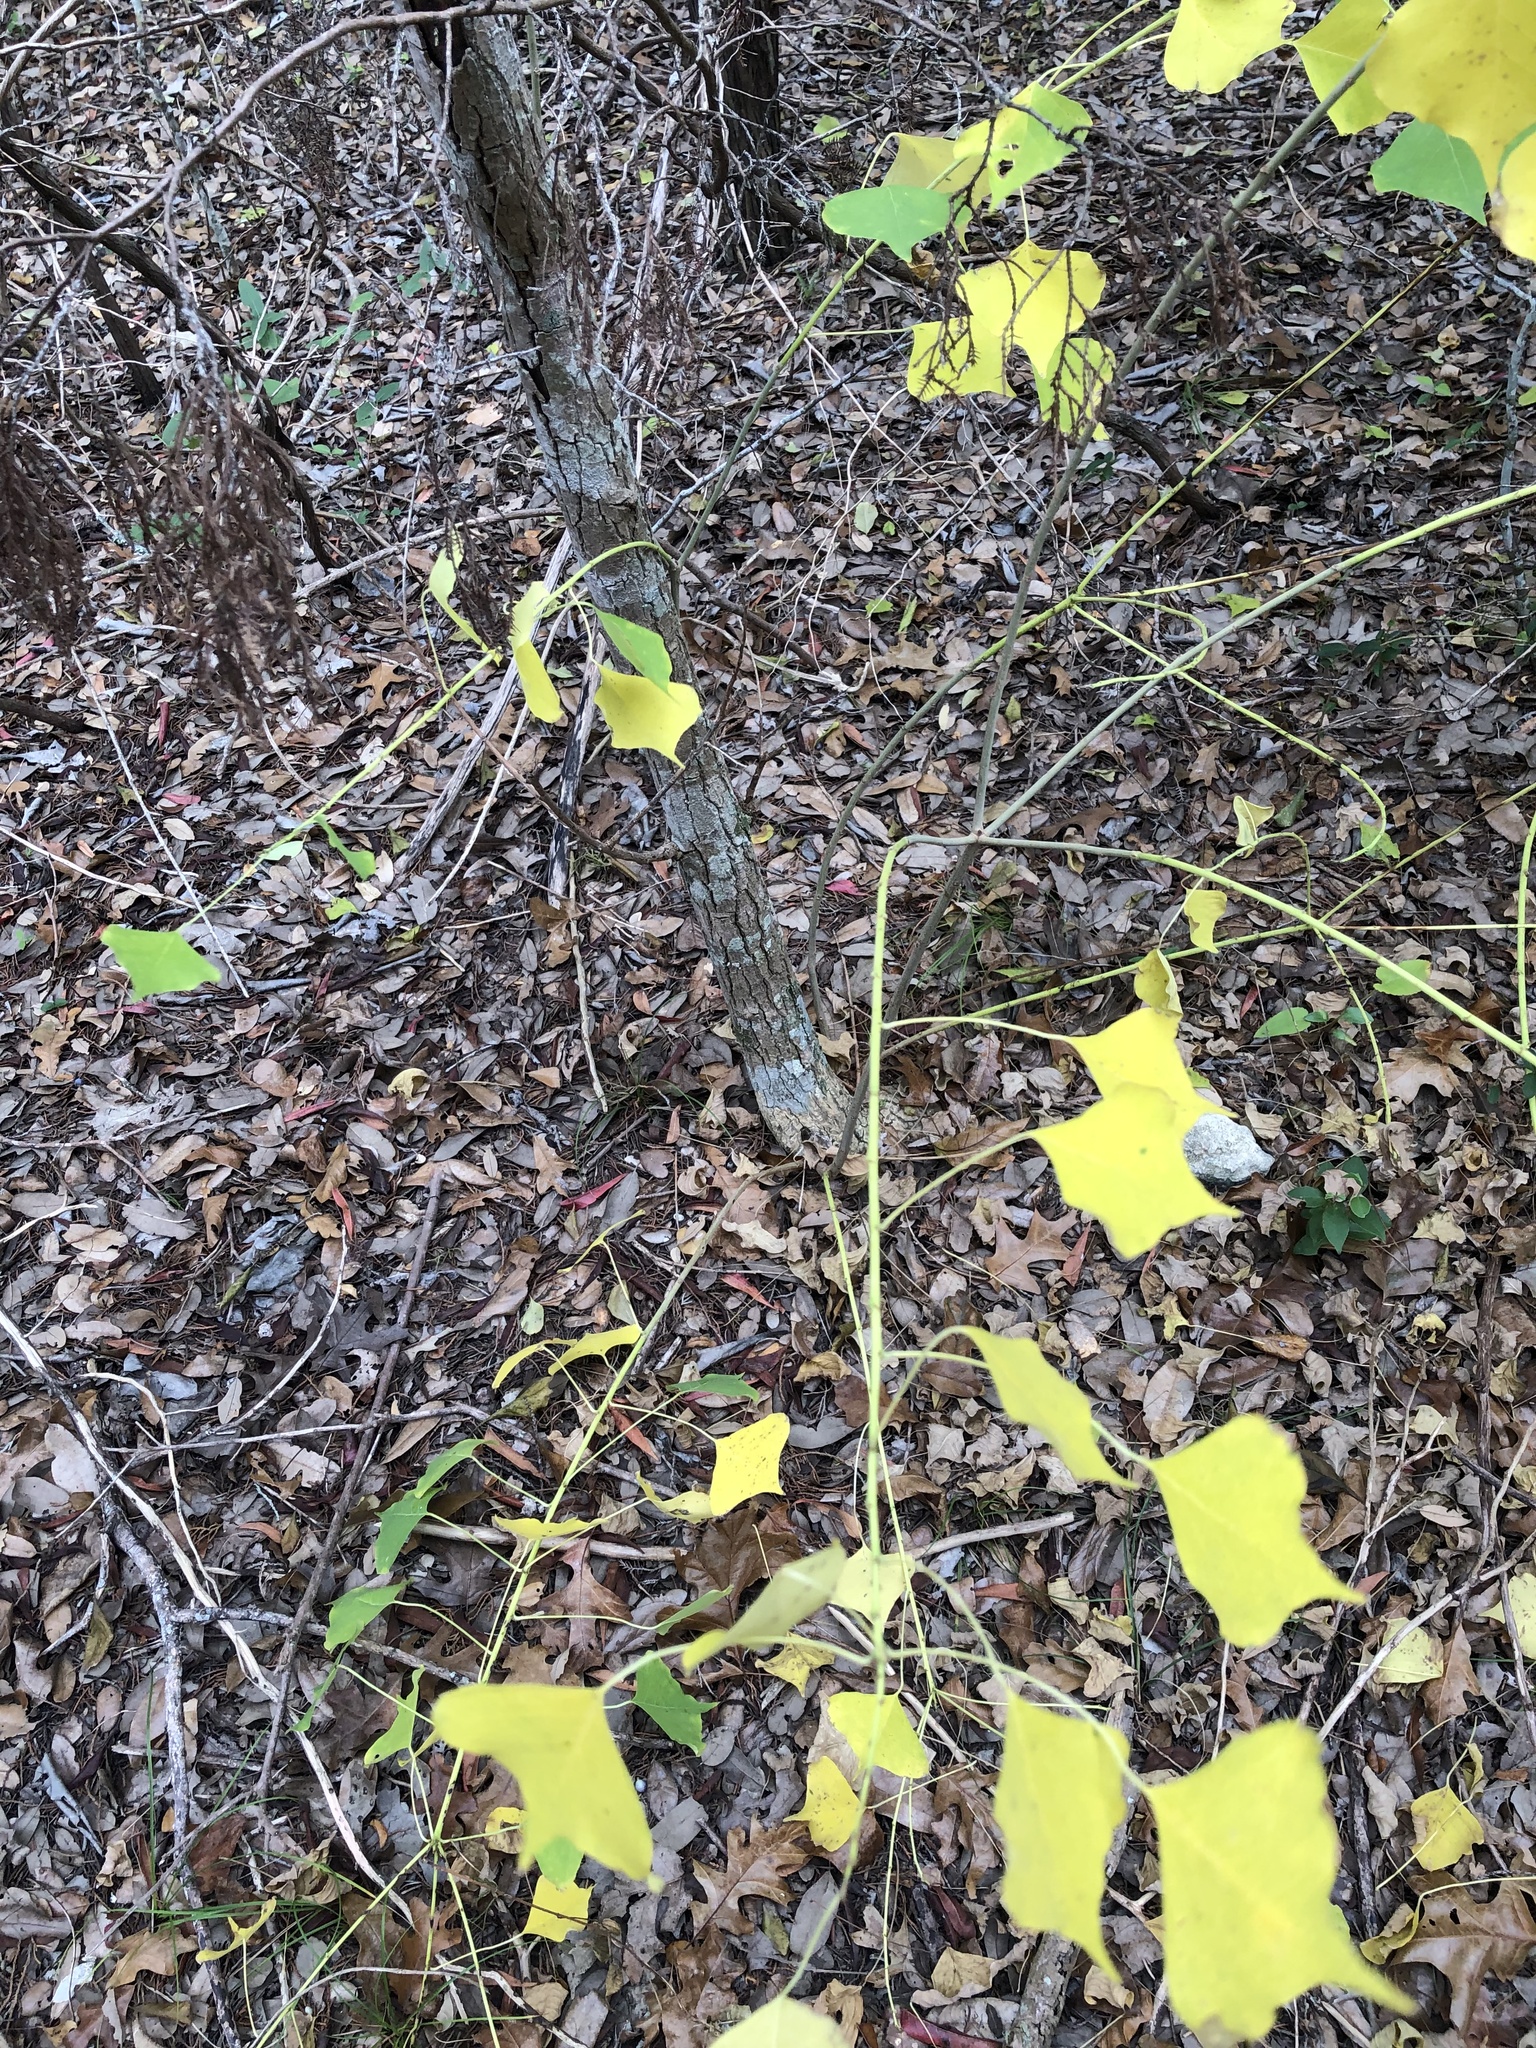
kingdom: Plantae
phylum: Tracheophyta
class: Magnoliopsida
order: Malpighiales
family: Euphorbiaceae
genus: Triadica
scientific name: Triadica sebifera
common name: Chinese tallow
